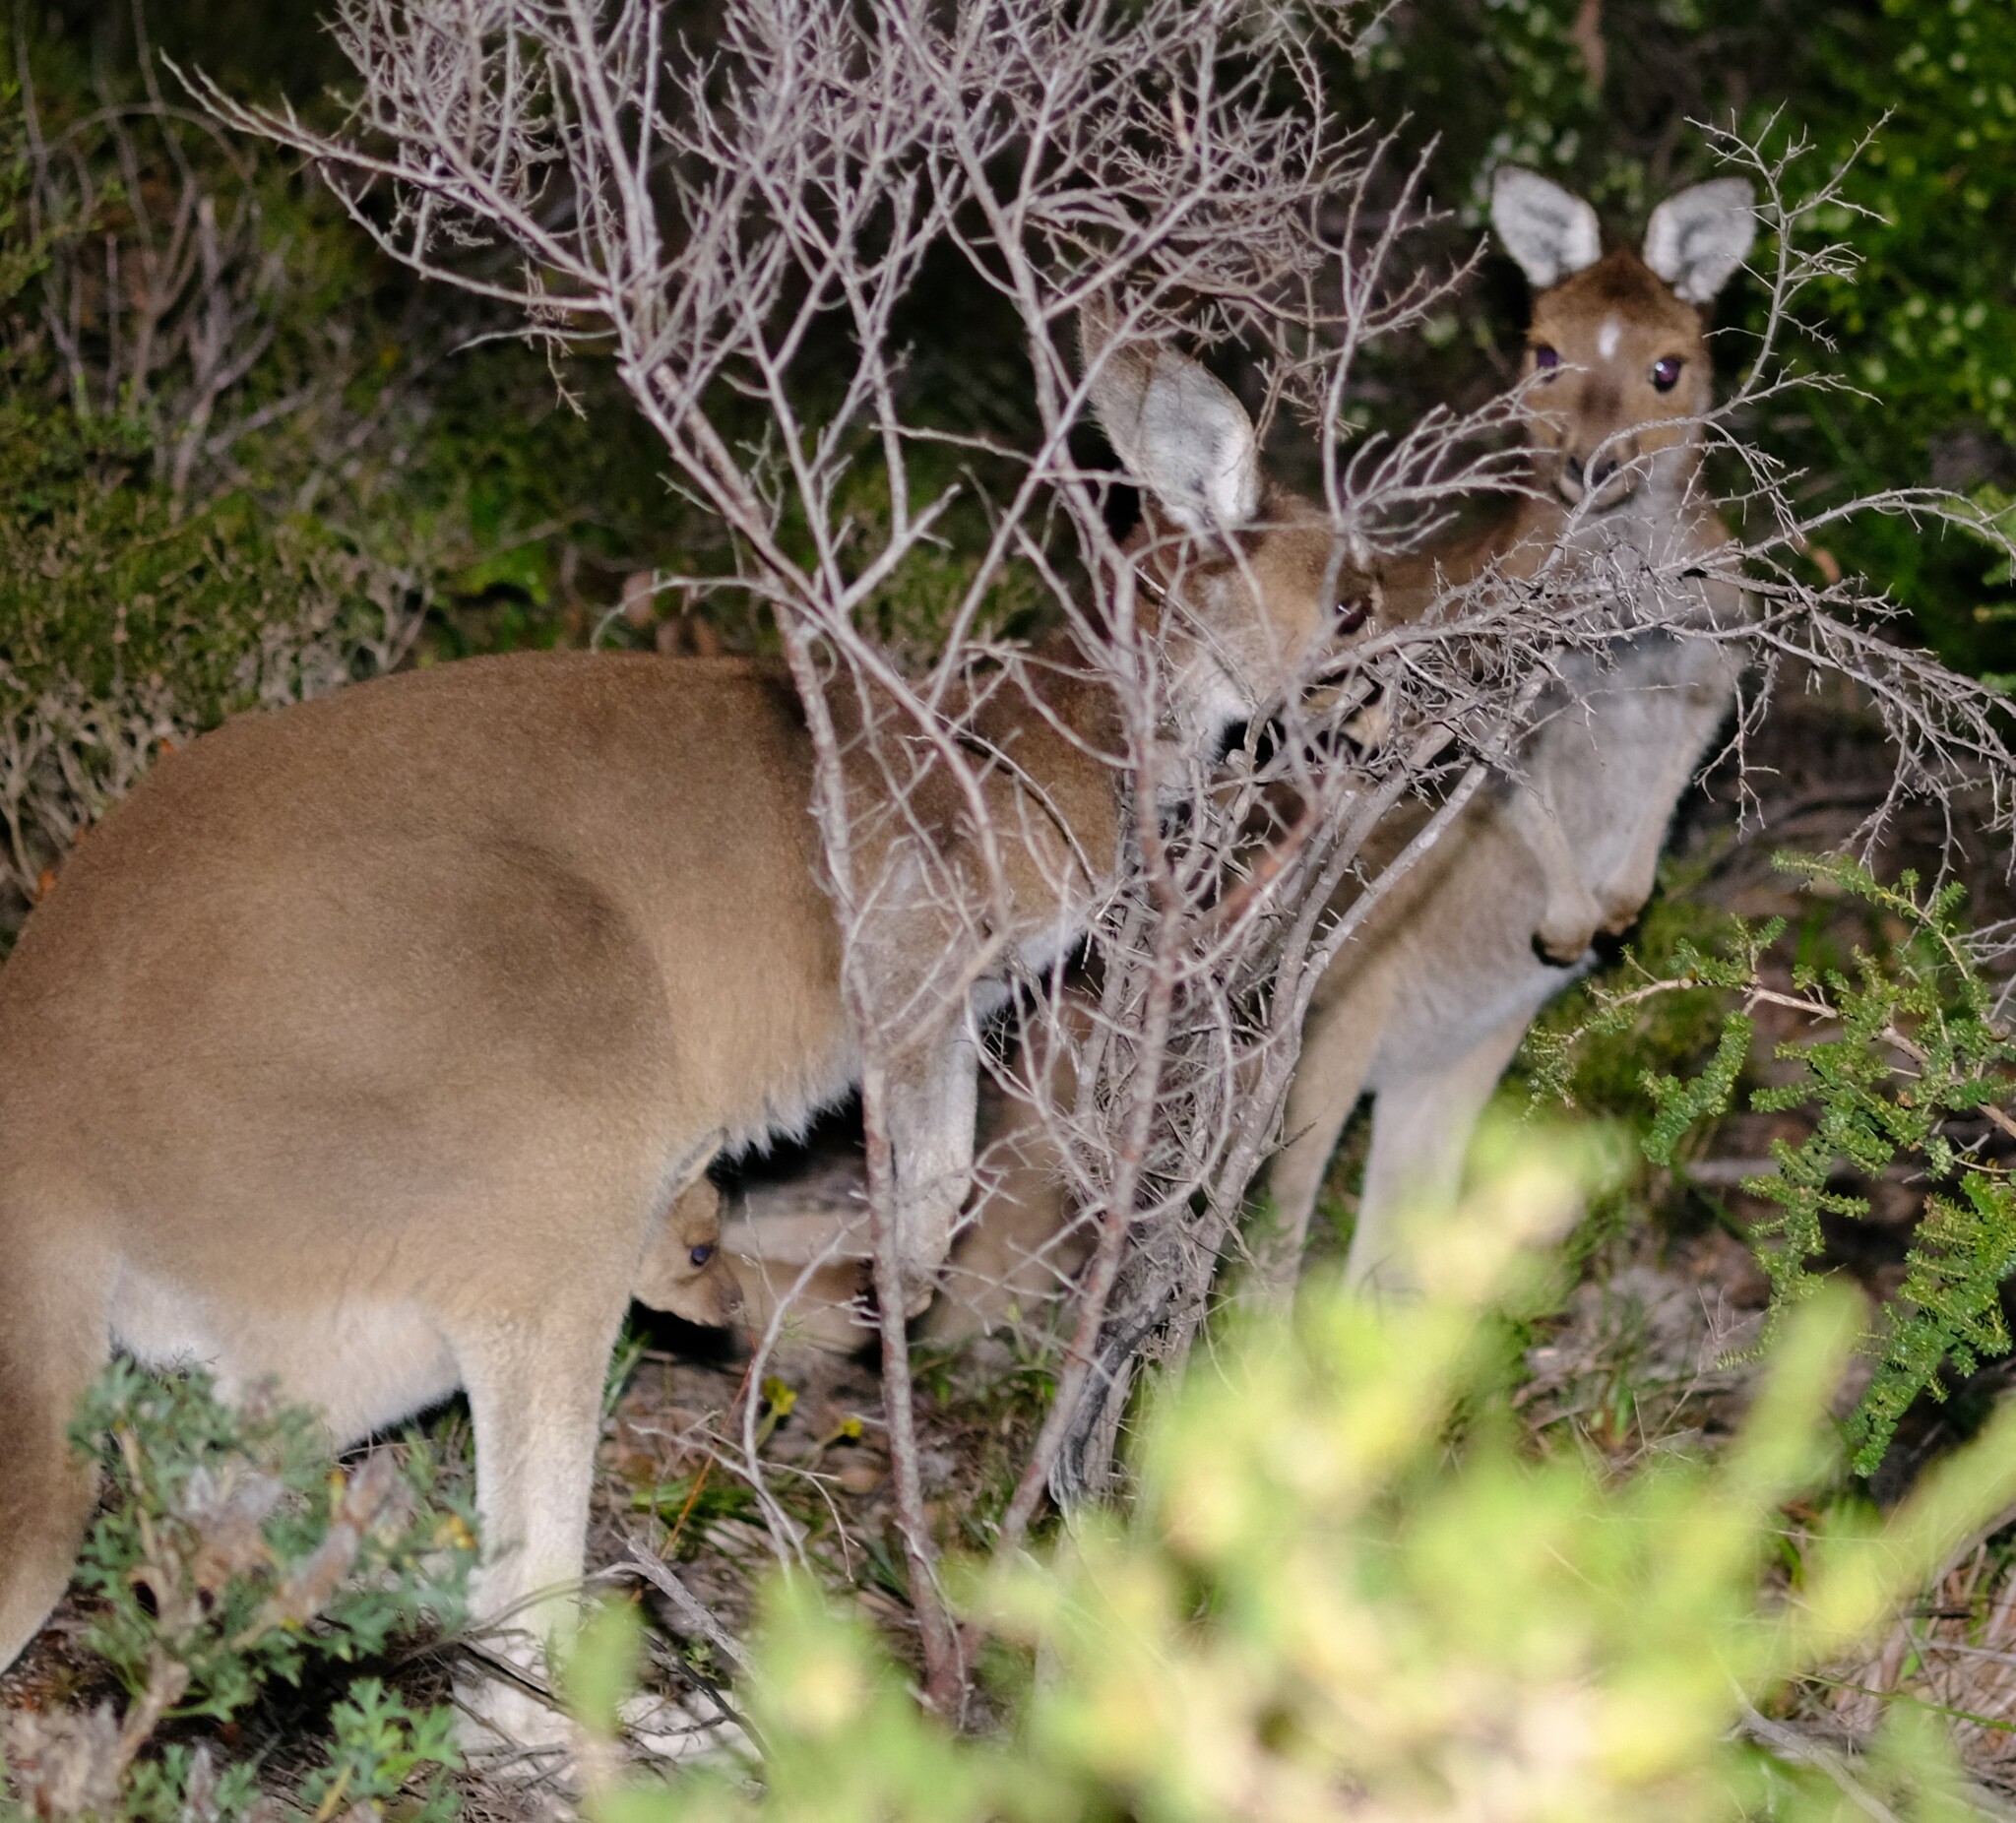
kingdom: Animalia
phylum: Chordata
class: Mammalia
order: Diprotodontia
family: Macropodidae
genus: Macropus
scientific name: Macropus fuliginosus
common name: Western grey kangaroo
